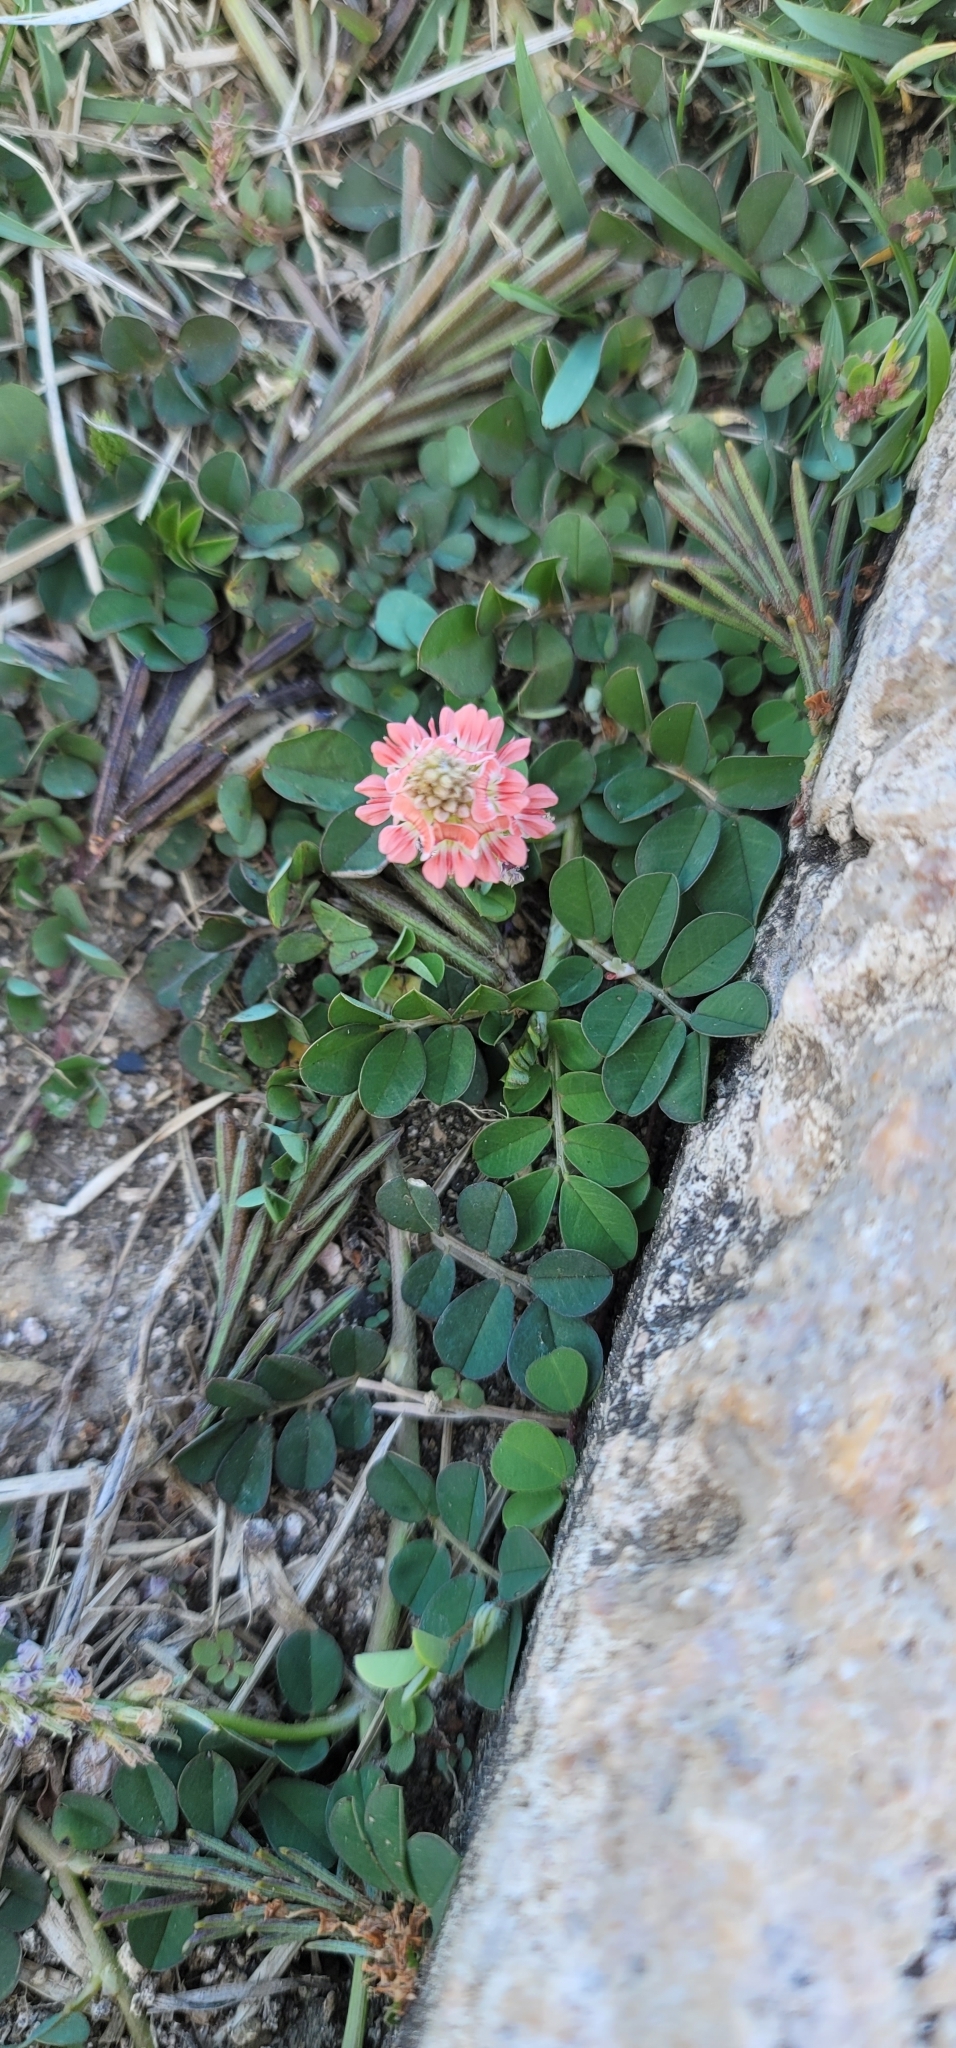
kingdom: Plantae
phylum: Tracheophyta
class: Magnoliopsida
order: Fabales
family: Fabaceae
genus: Indigofera
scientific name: Indigofera spicata
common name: Creeping indigo
